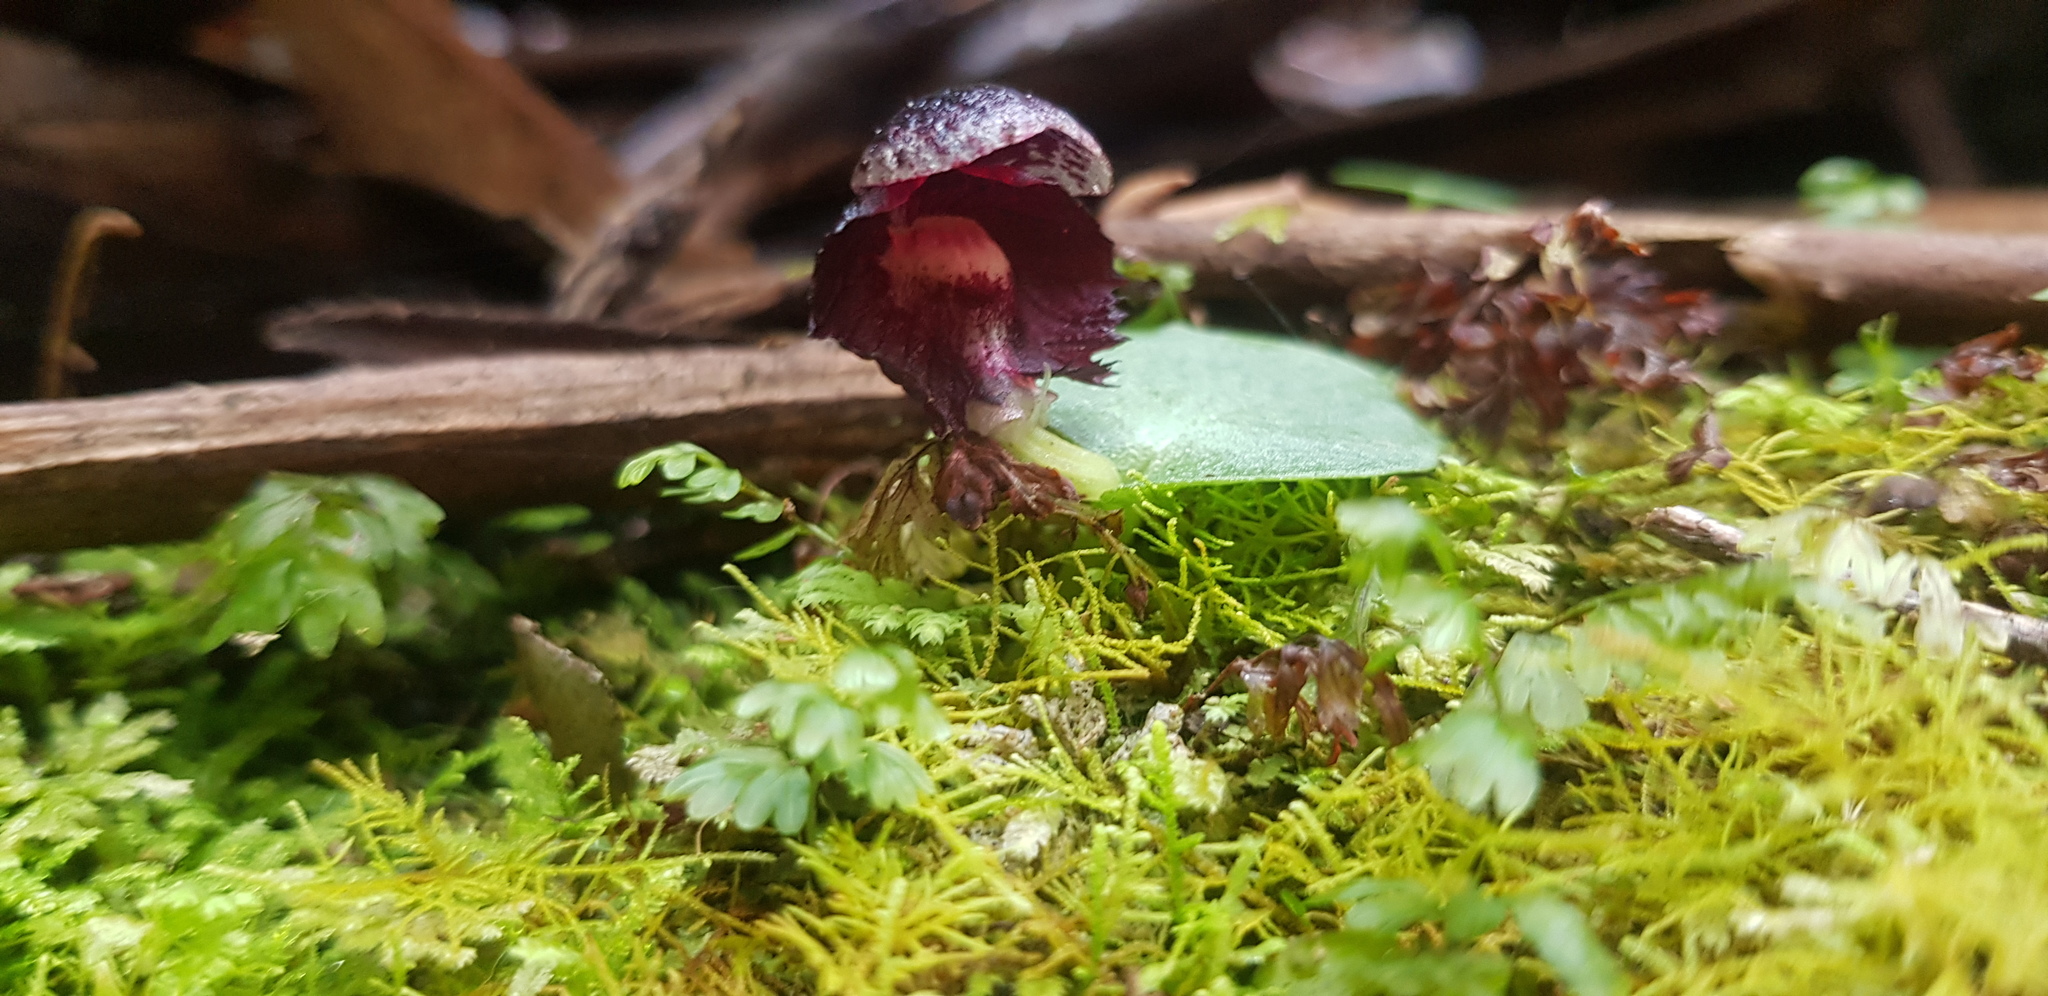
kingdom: Plantae
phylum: Tracheophyta
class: Liliopsida
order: Asparagales
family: Orchidaceae
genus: Corybas
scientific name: Corybas diemenicus
